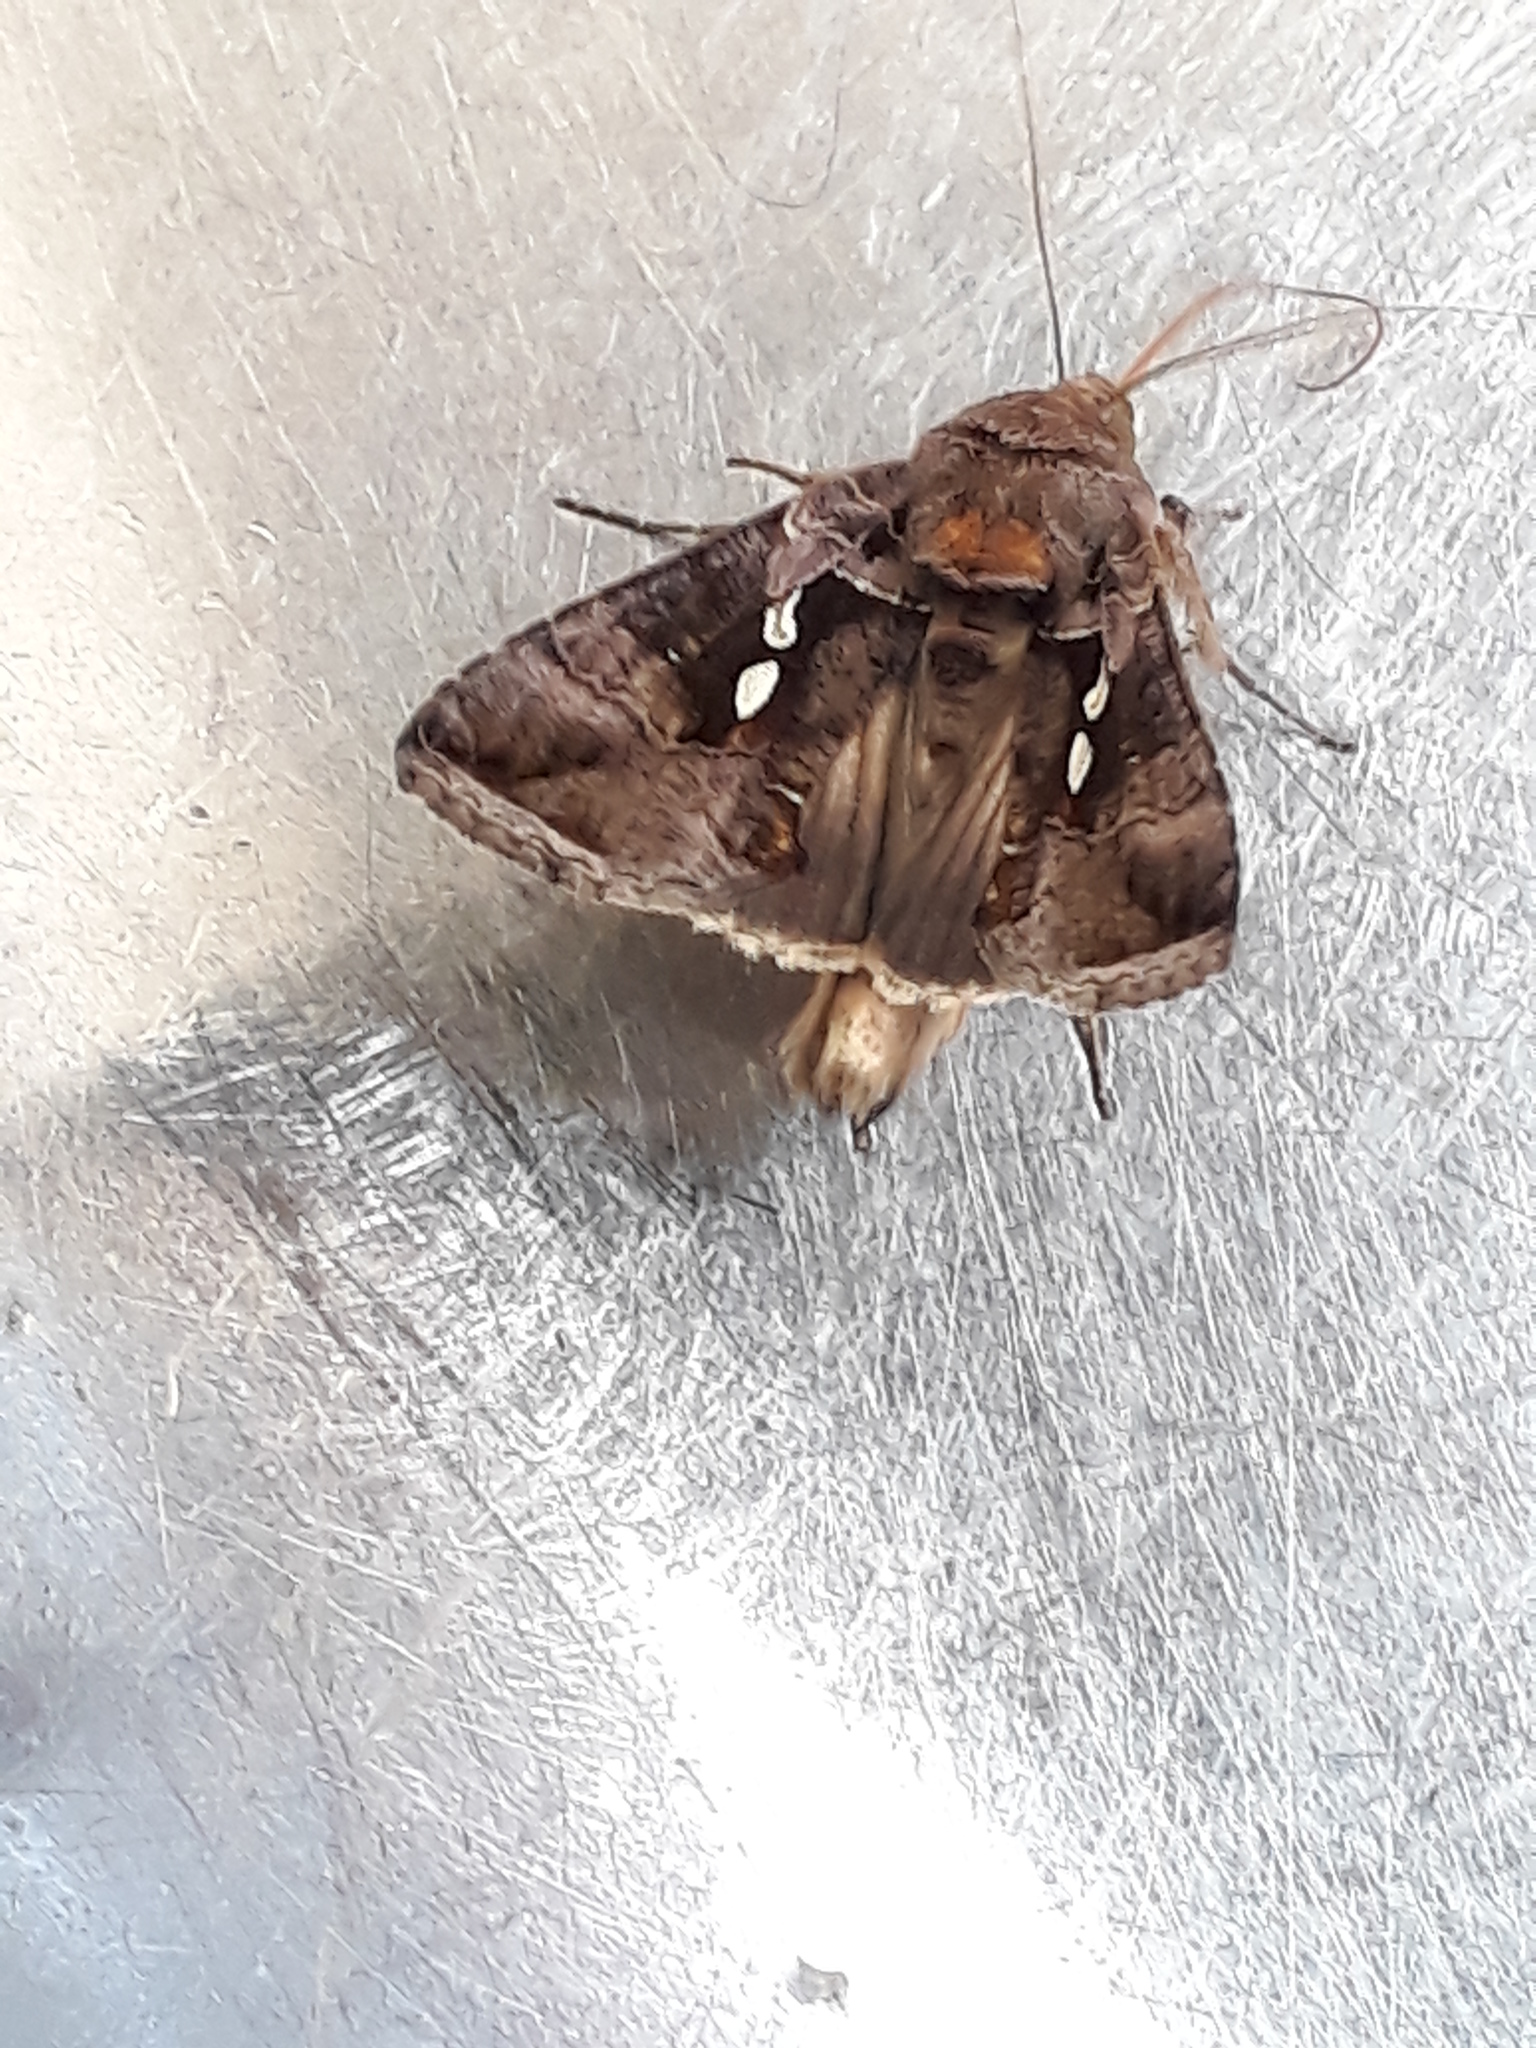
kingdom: Animalia
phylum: Arthropoda
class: Insecta
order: Lepidoptera
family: Noctuidae
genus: Chrysodeixis
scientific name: Chrysodeixis eriosoma
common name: Green garden looper
